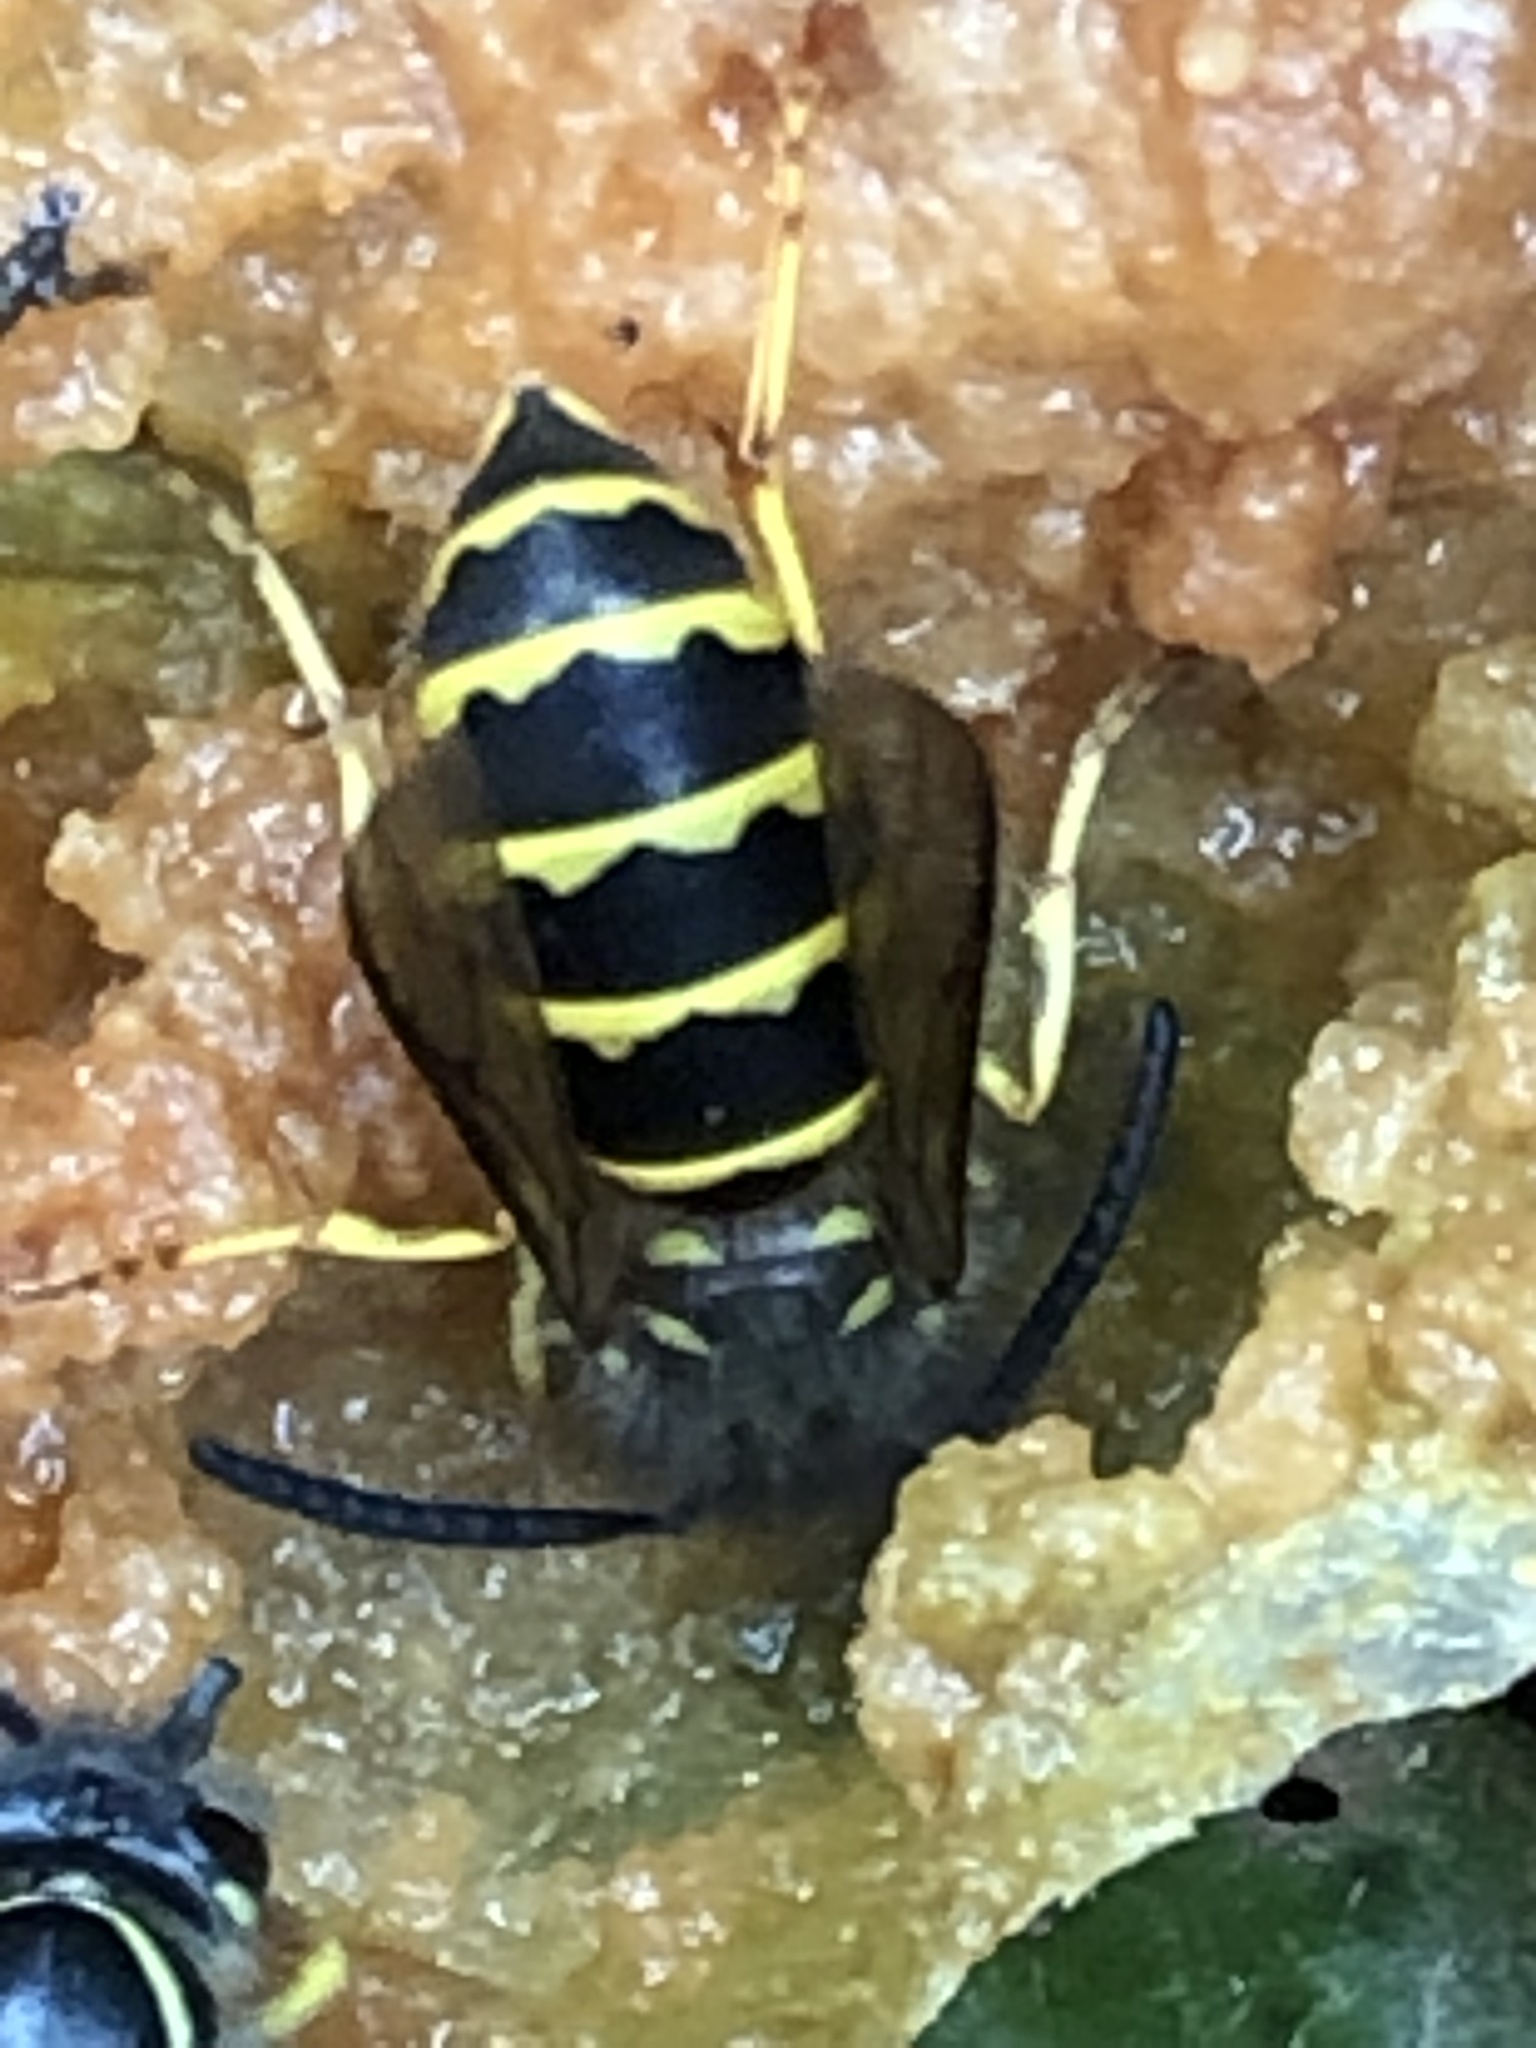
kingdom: Animalia
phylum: Arthropoda
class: Insecta
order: Hymenoptera
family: Vespidae
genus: Vespula
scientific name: Vespula alascensis
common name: Alaska yellowjacket
